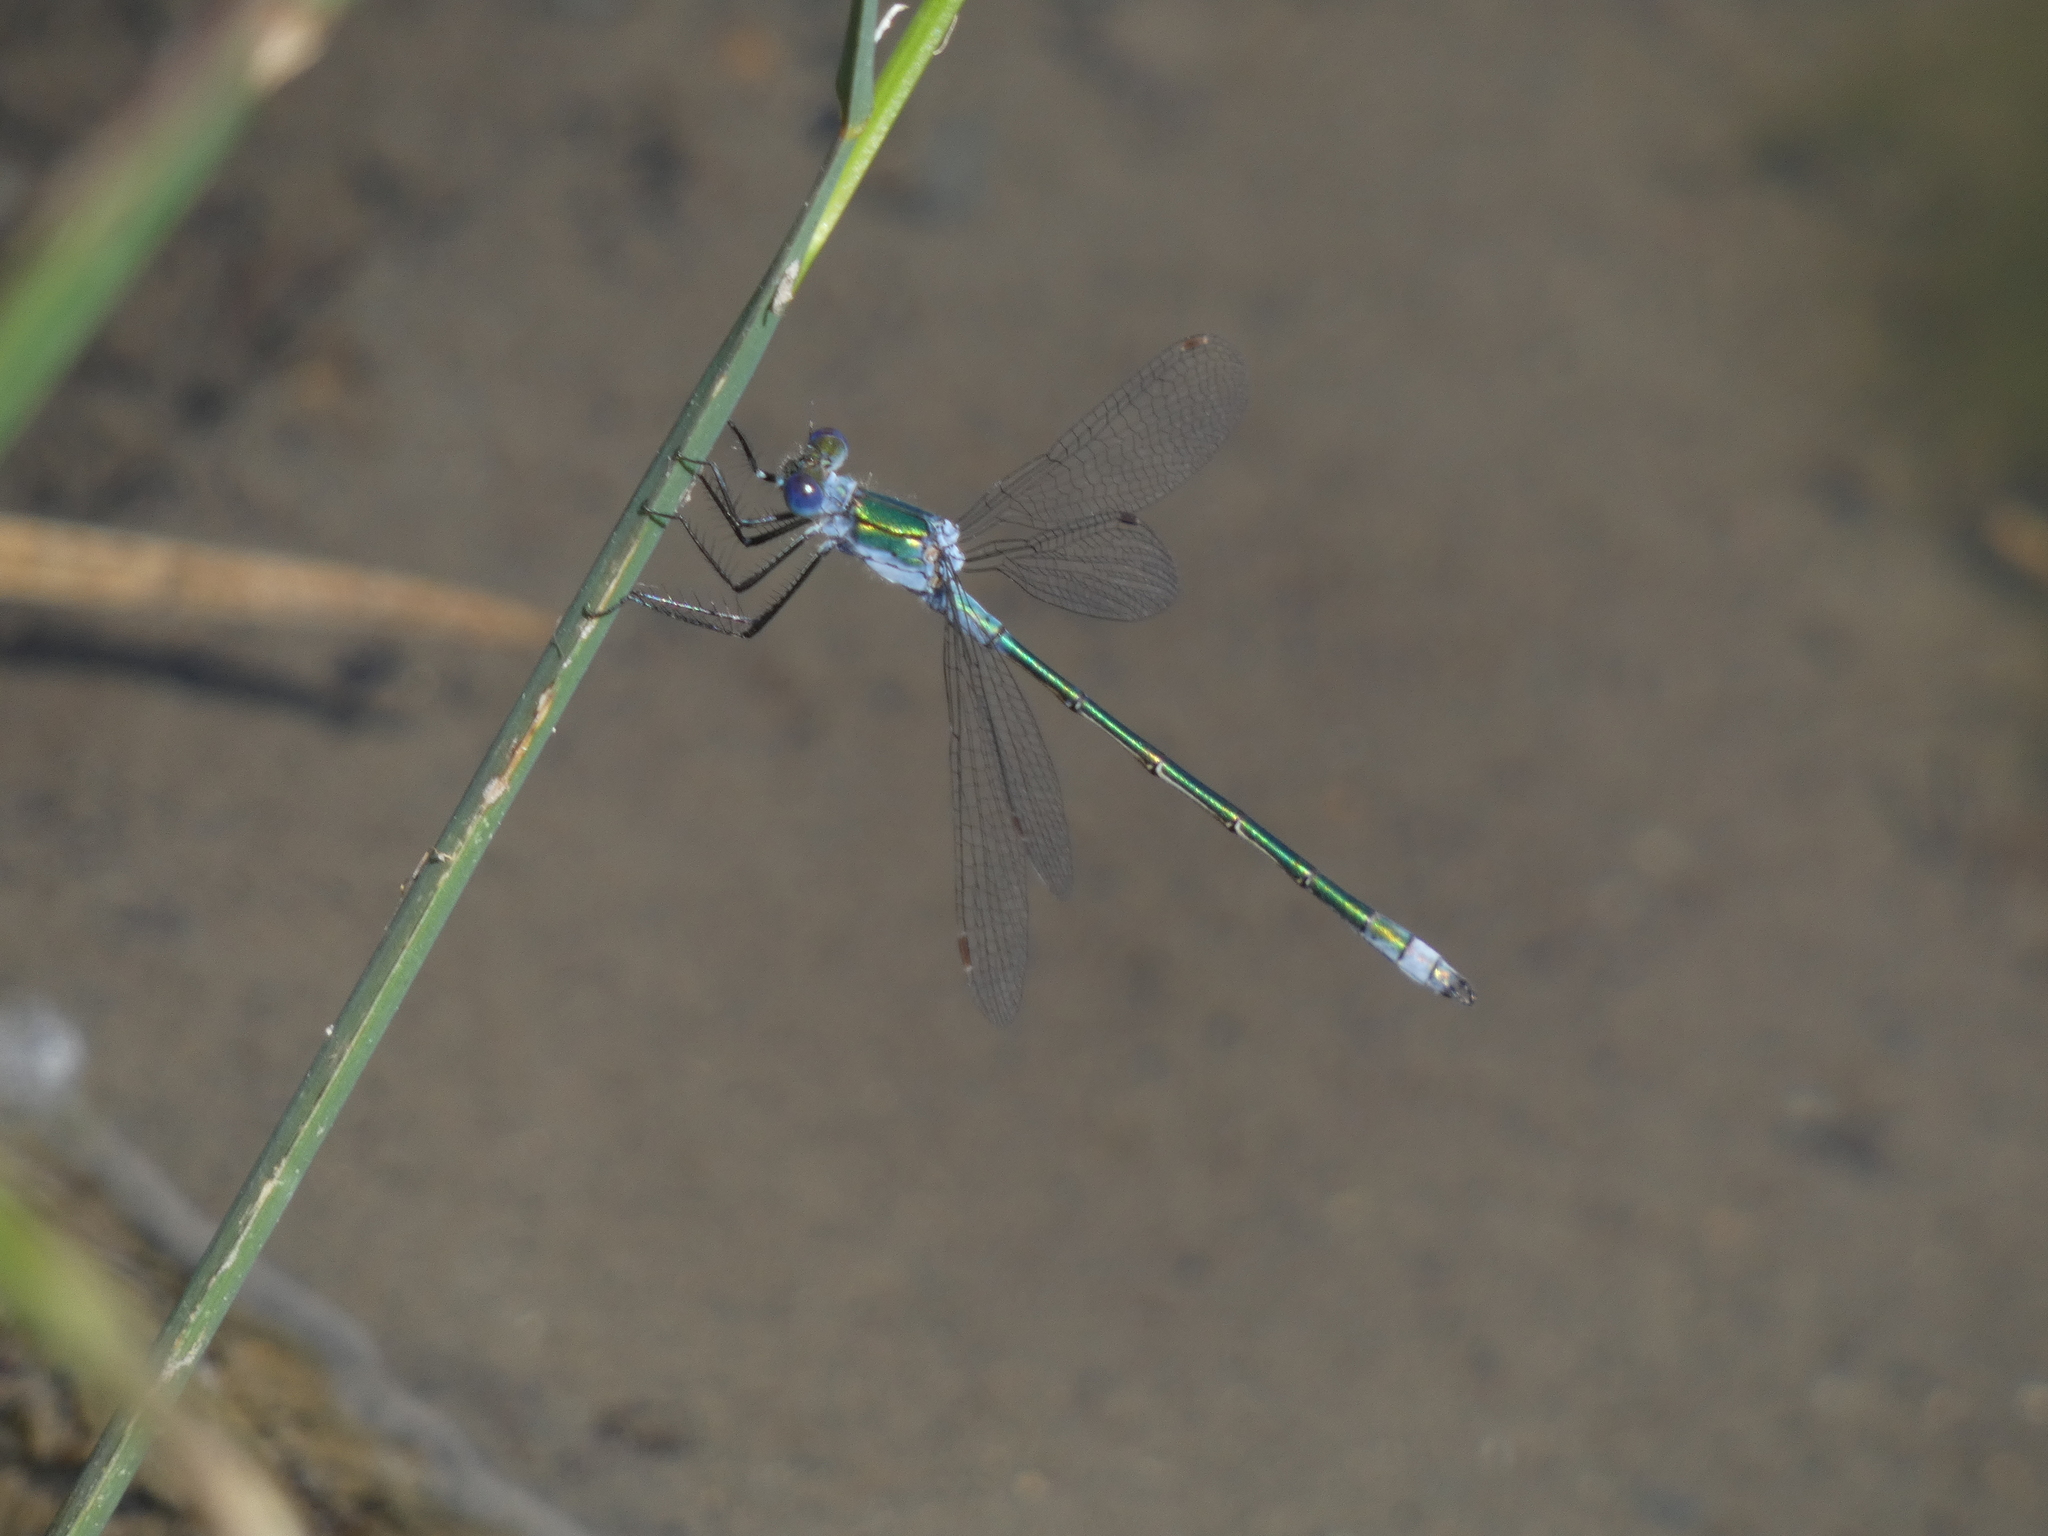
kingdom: Animalia
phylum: Arthropoda
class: Insecta
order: Odonata
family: Lestidae
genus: Lestes
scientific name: Lestes sponsa
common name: Common spreadwing
